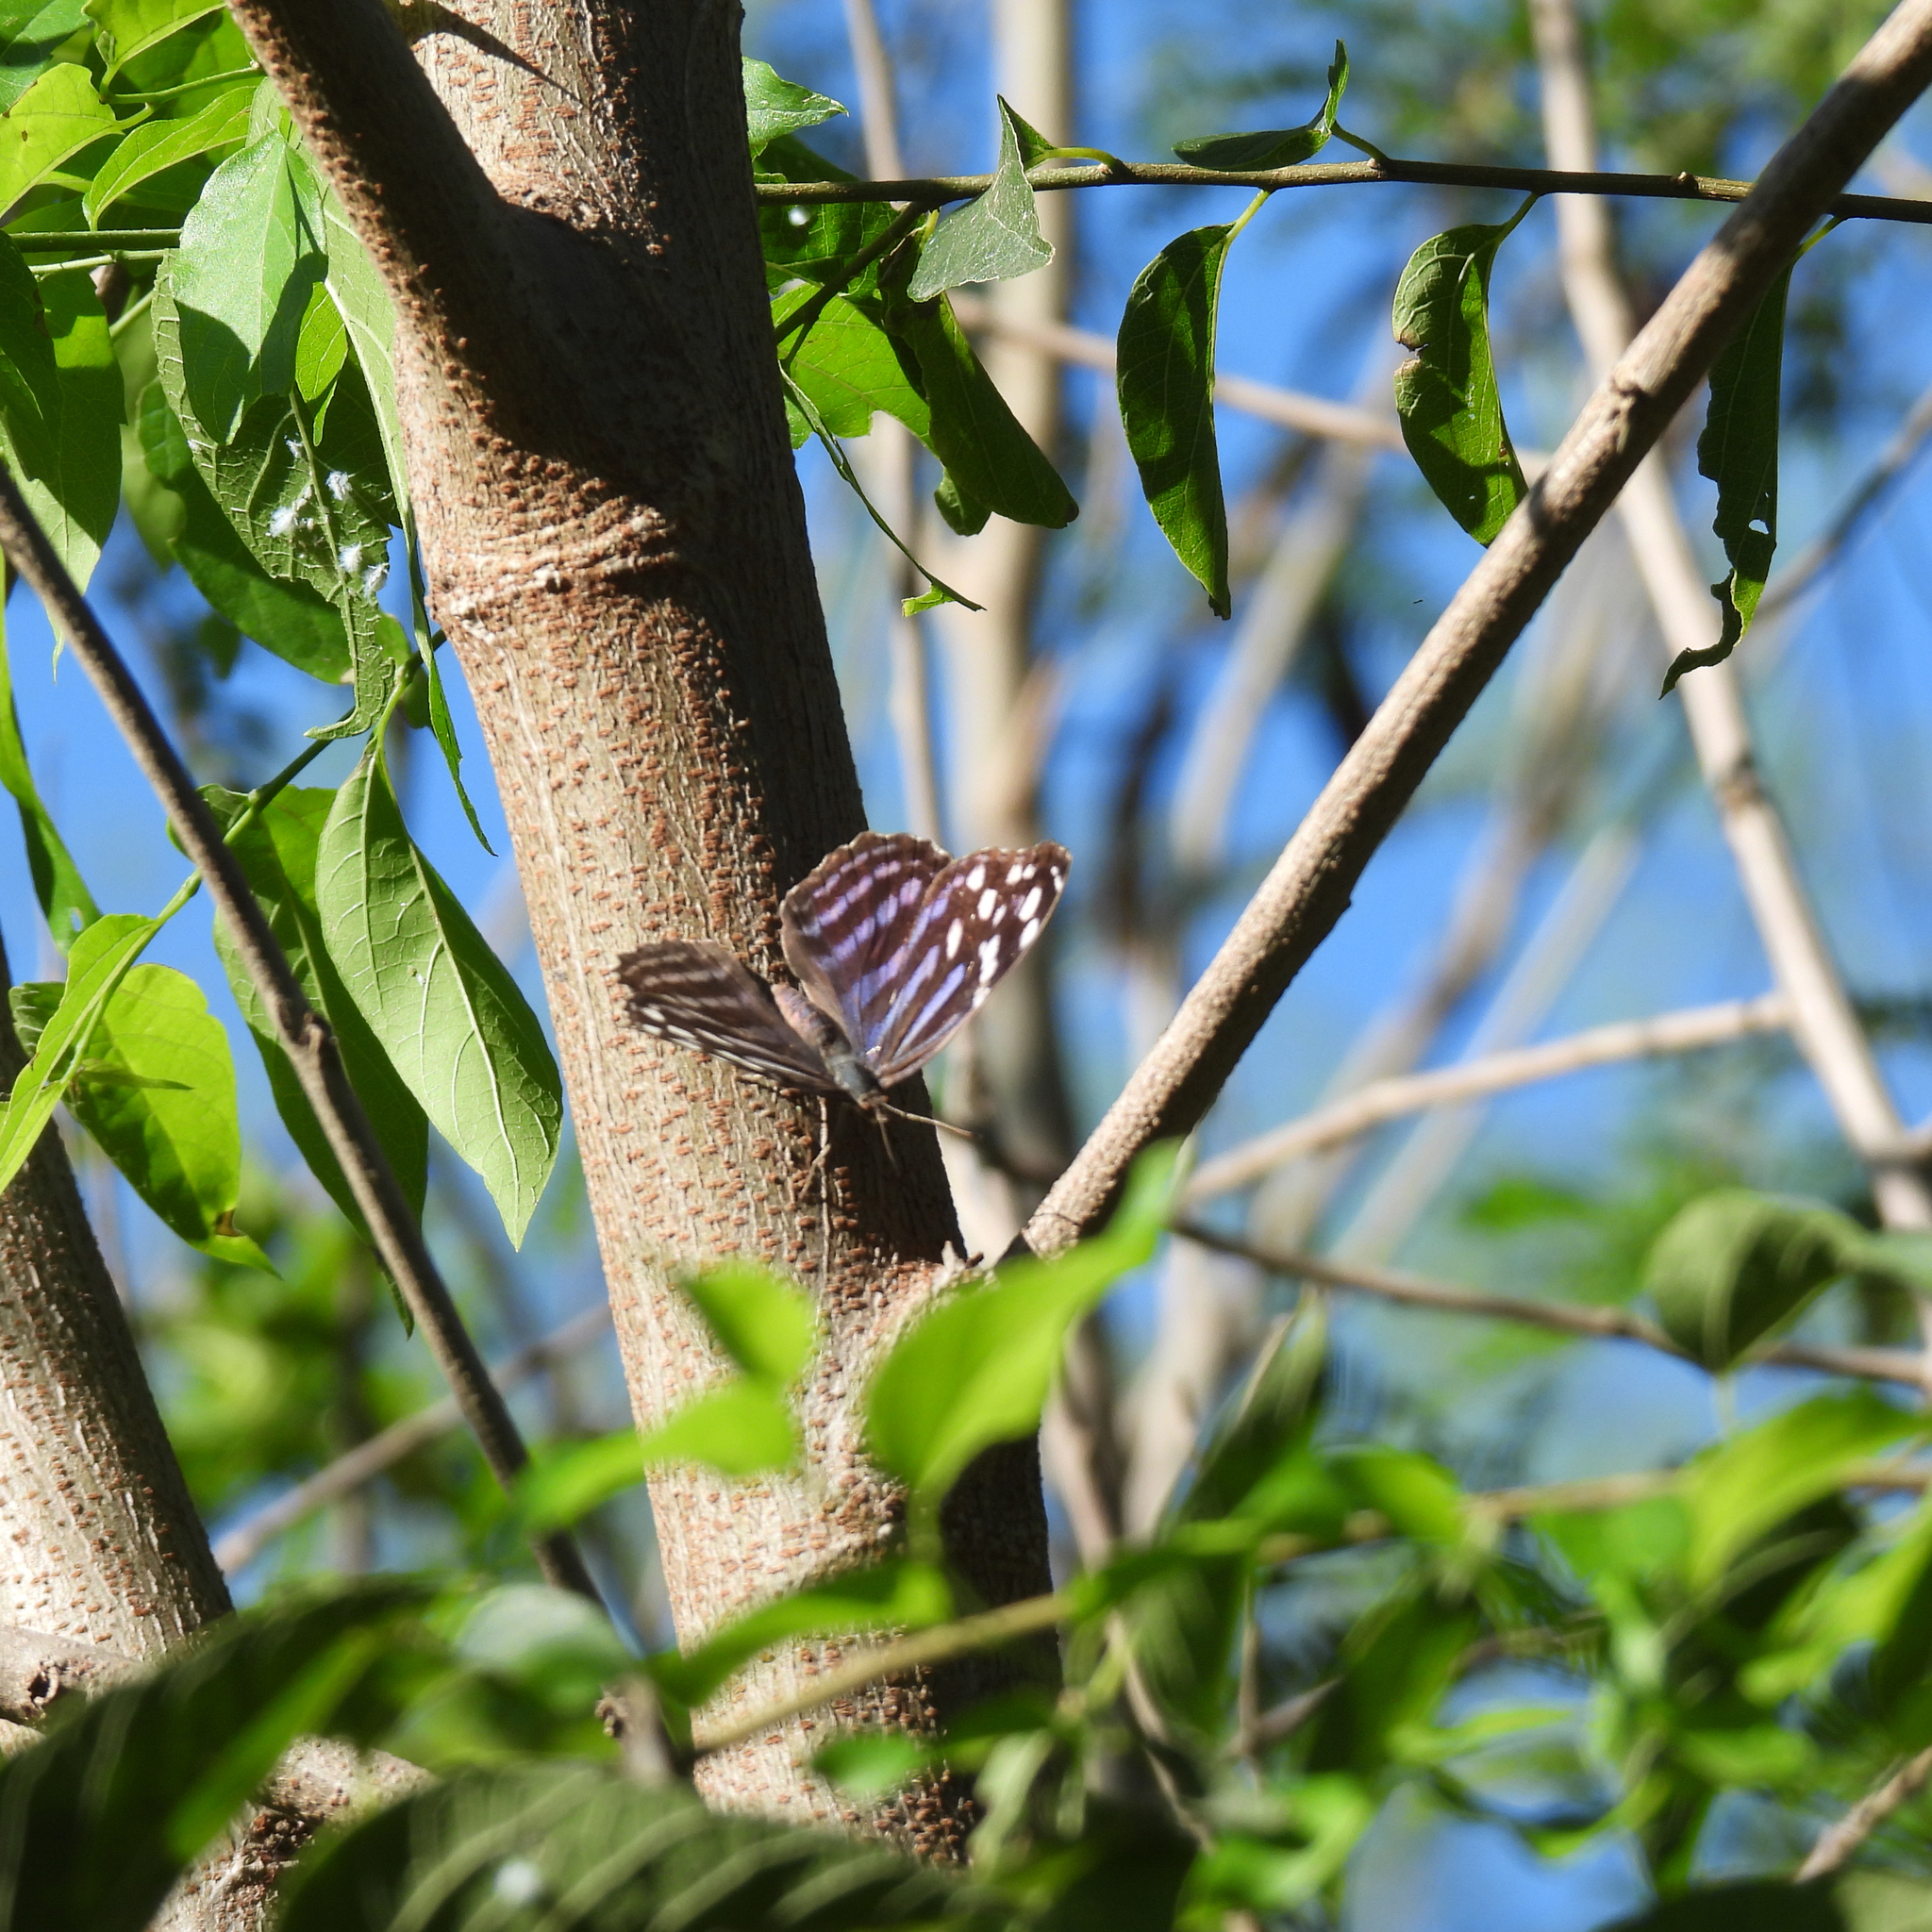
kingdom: Animalia
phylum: Arthropoda
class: Insecta
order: Lepidoptera
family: Nymphalidae
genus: Myscelia
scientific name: Myscelia ethusa
